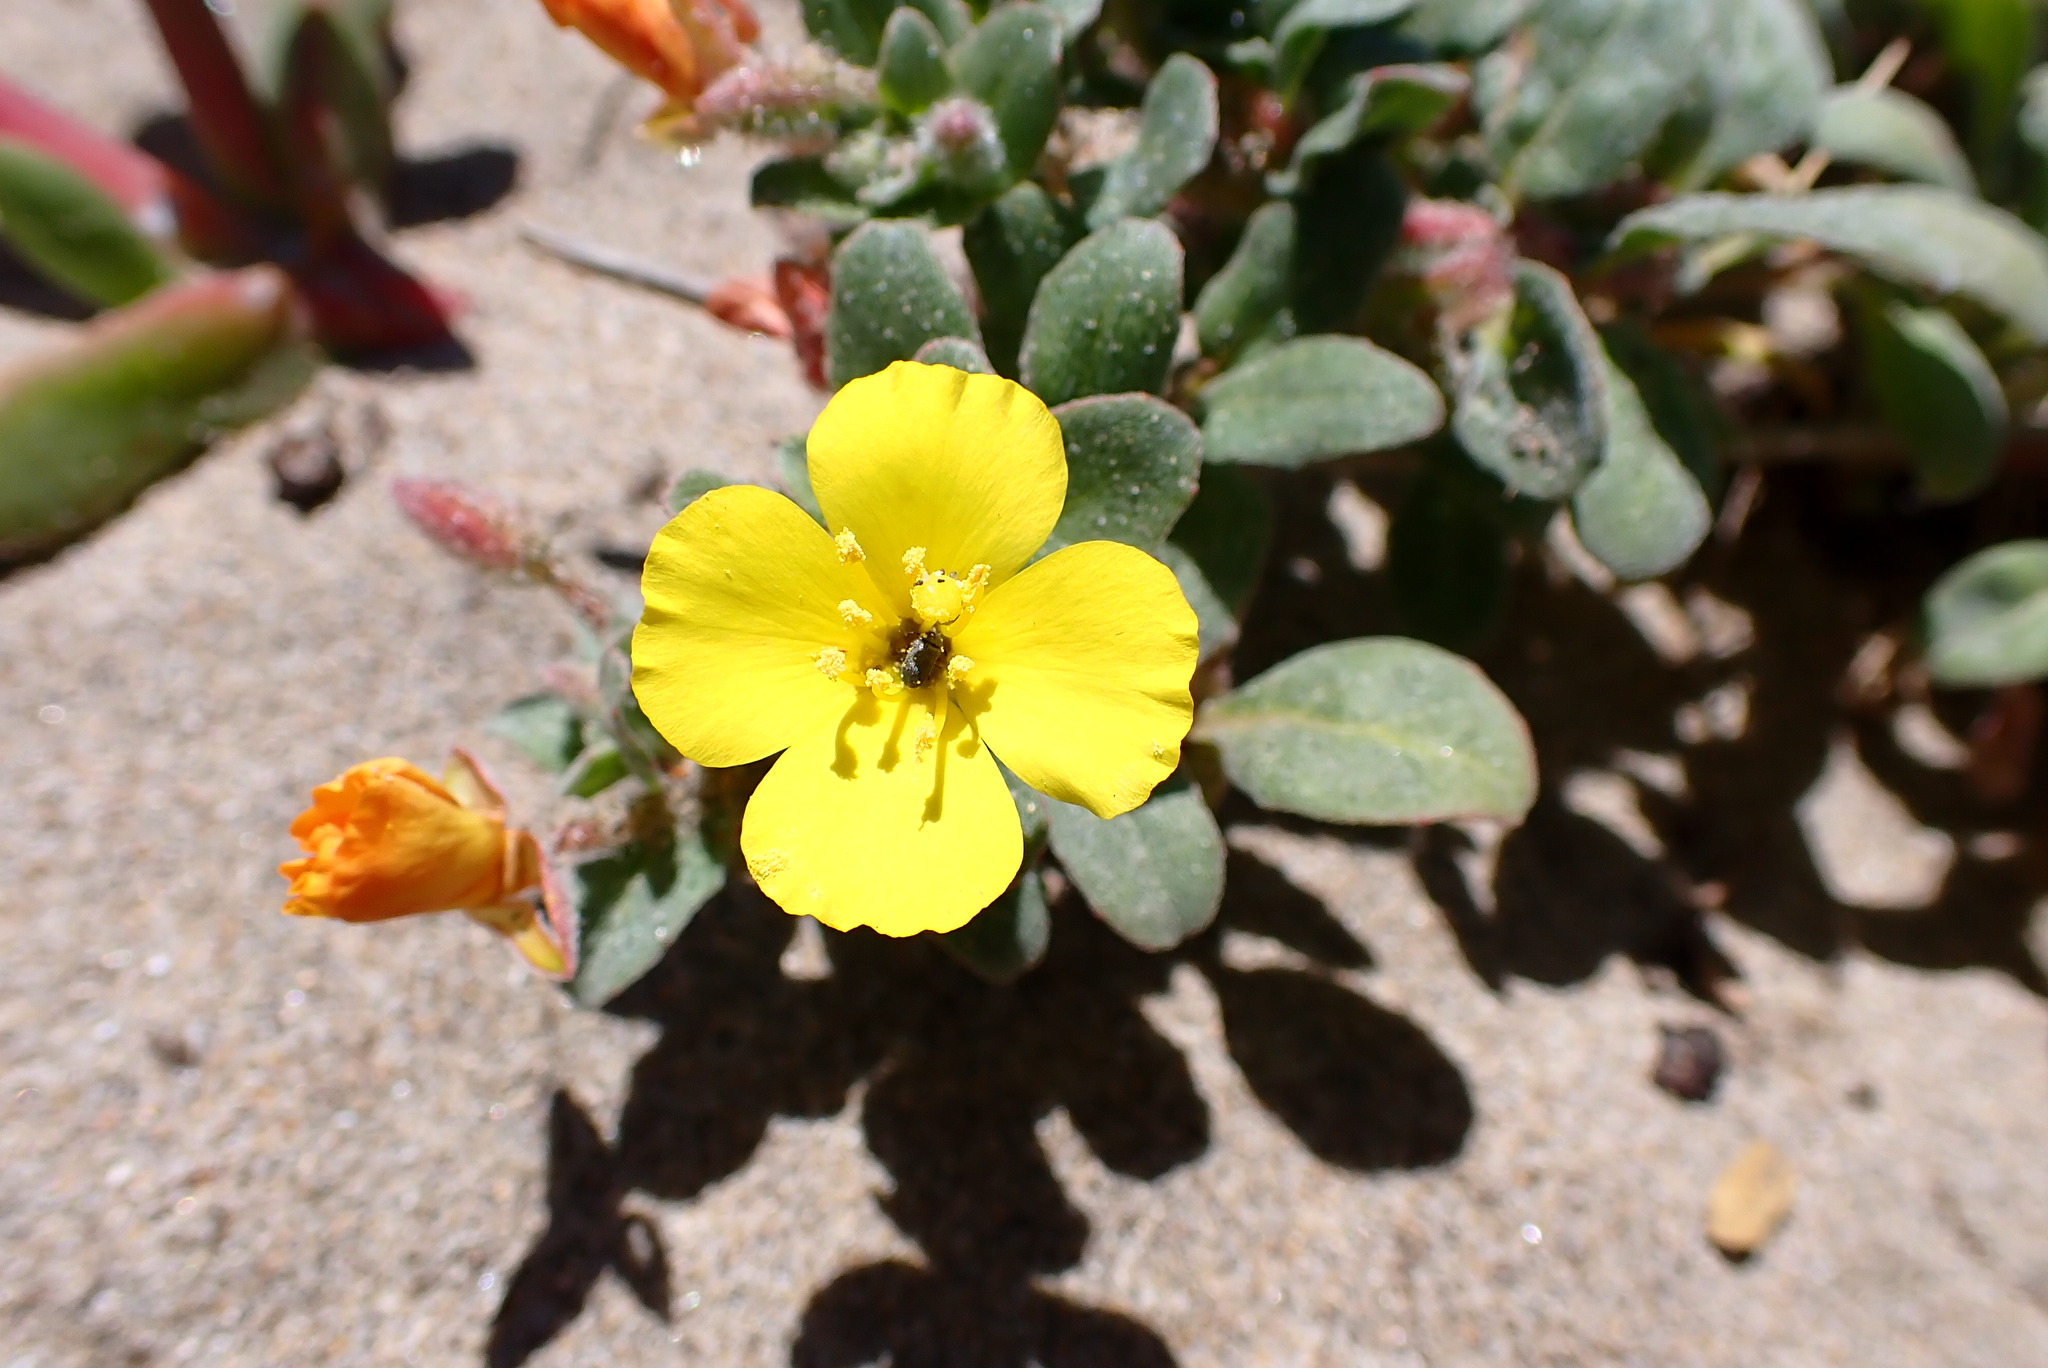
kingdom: Plantae
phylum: Tracheophyta
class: Magnoliopsida
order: Myrtales
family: Onagraceae
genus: Camissoniopsis
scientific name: Camissoniopsis cheiranthifolia
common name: Beach suncup
